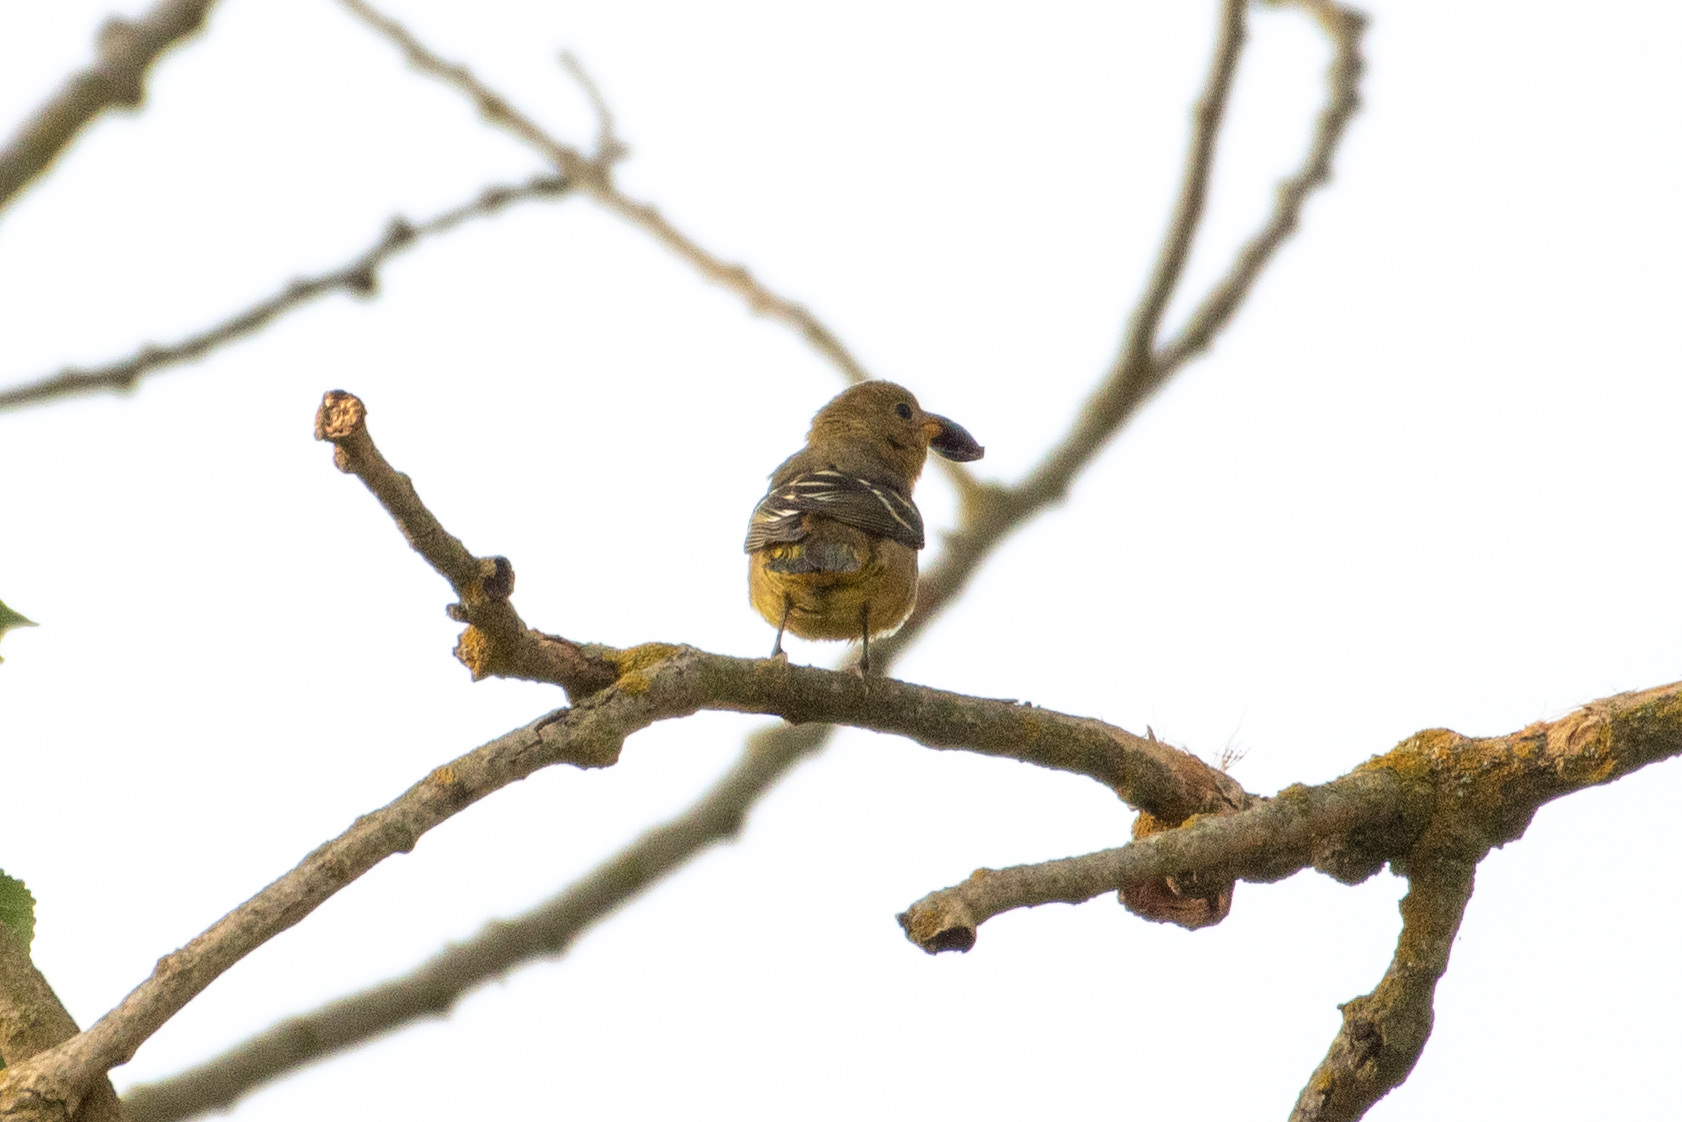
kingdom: Animalia
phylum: Chordata
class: Aves
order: Passeriformes
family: Cardinalidae
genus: Piranga
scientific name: Piranga ludoviciana
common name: Western tanager
